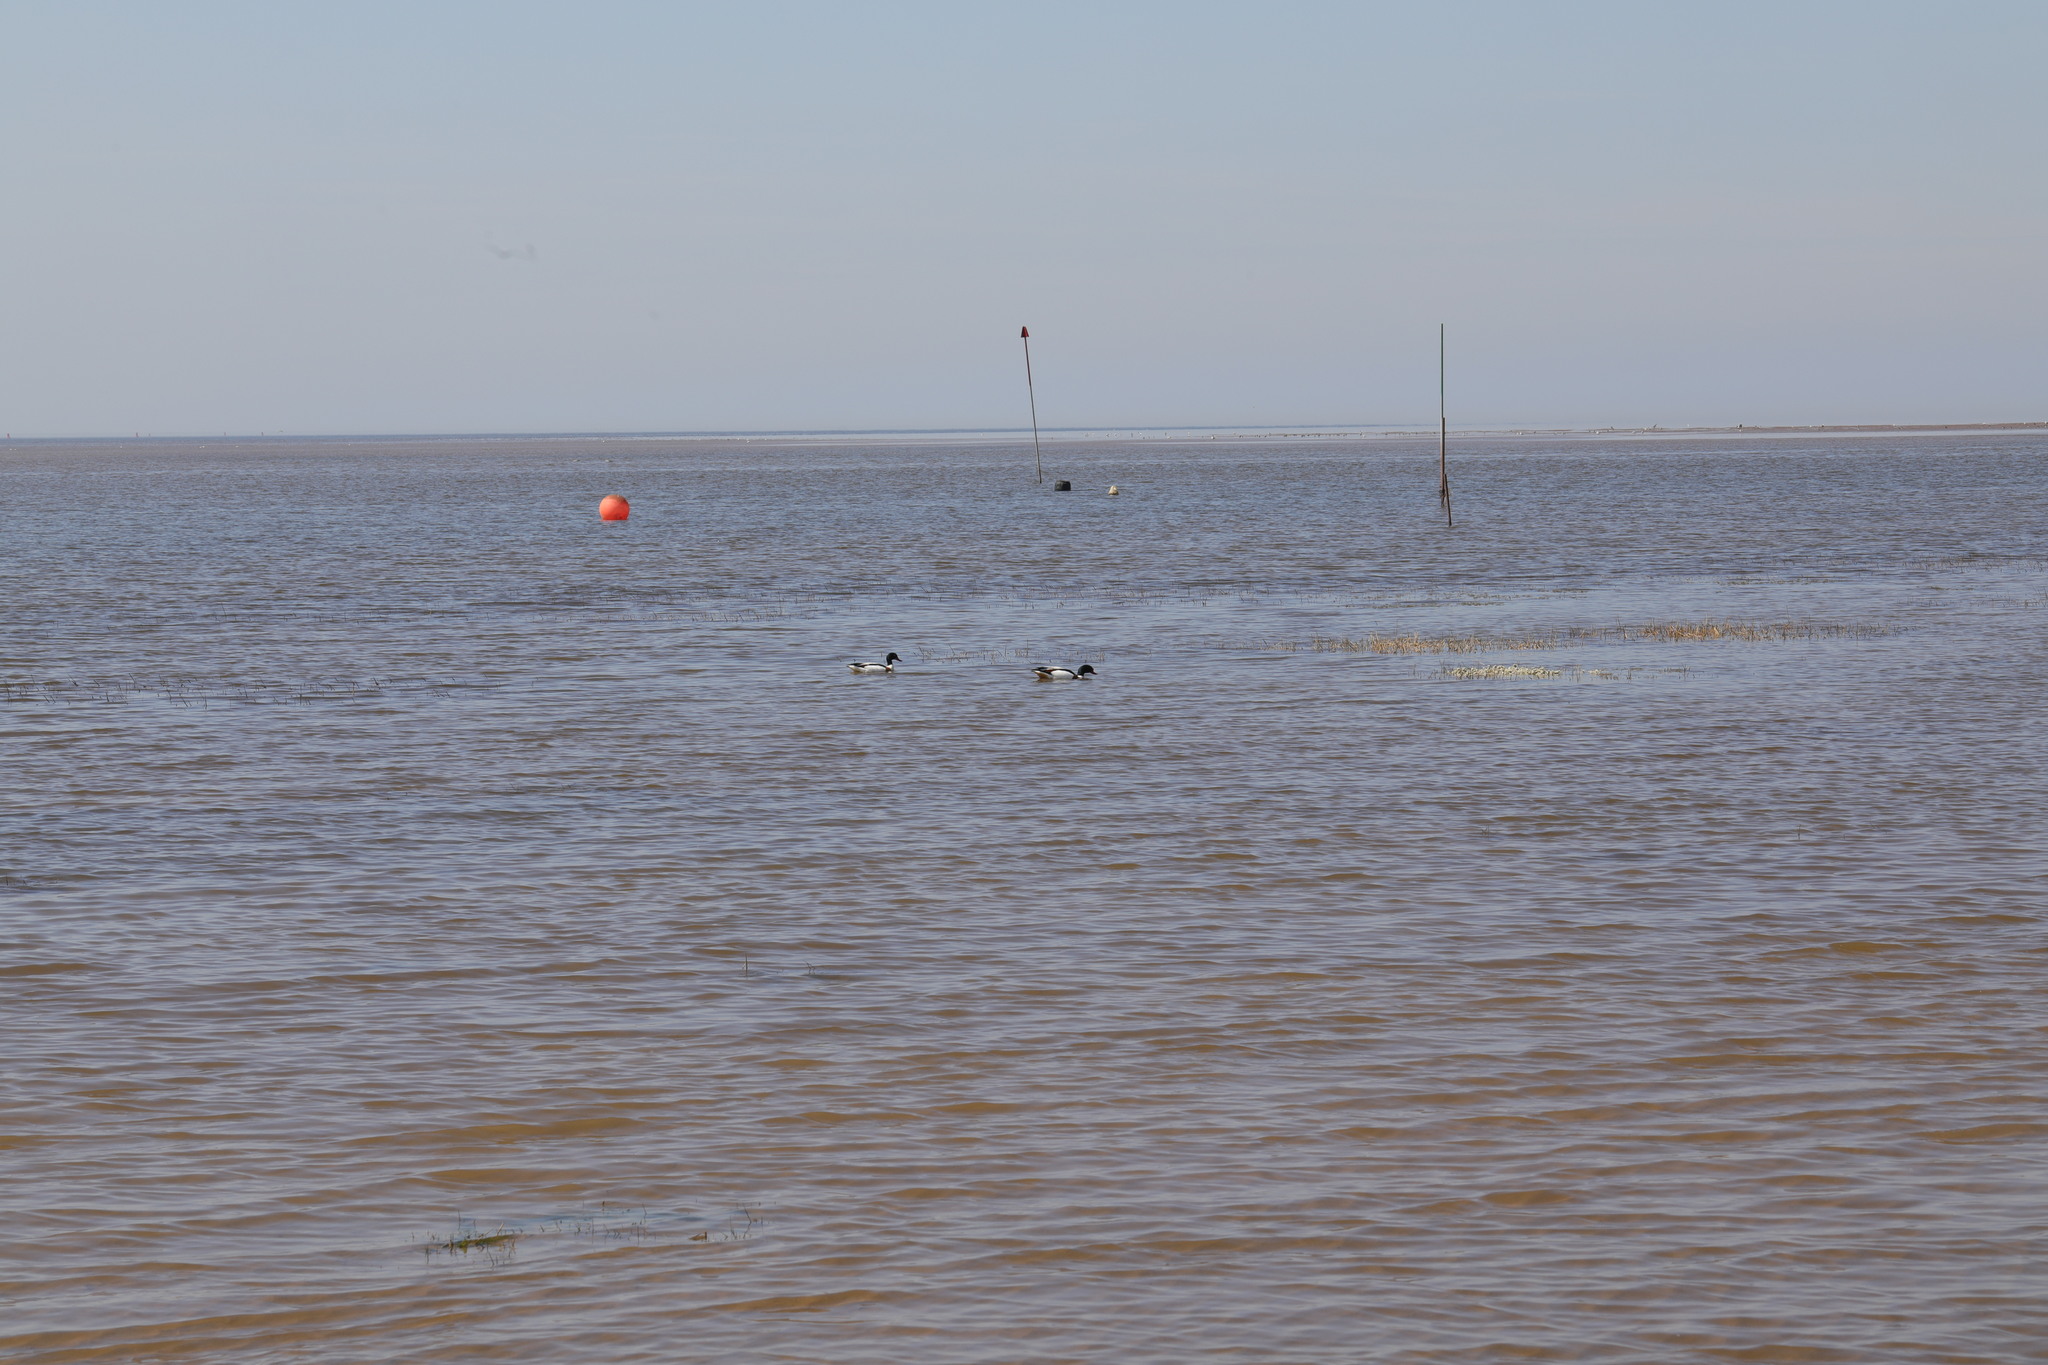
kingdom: Animalia
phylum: Chordata
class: Aves
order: Anseriformes
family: Anatidae
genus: Tadorna
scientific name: Tadorna tadorna
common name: Common shelduck
